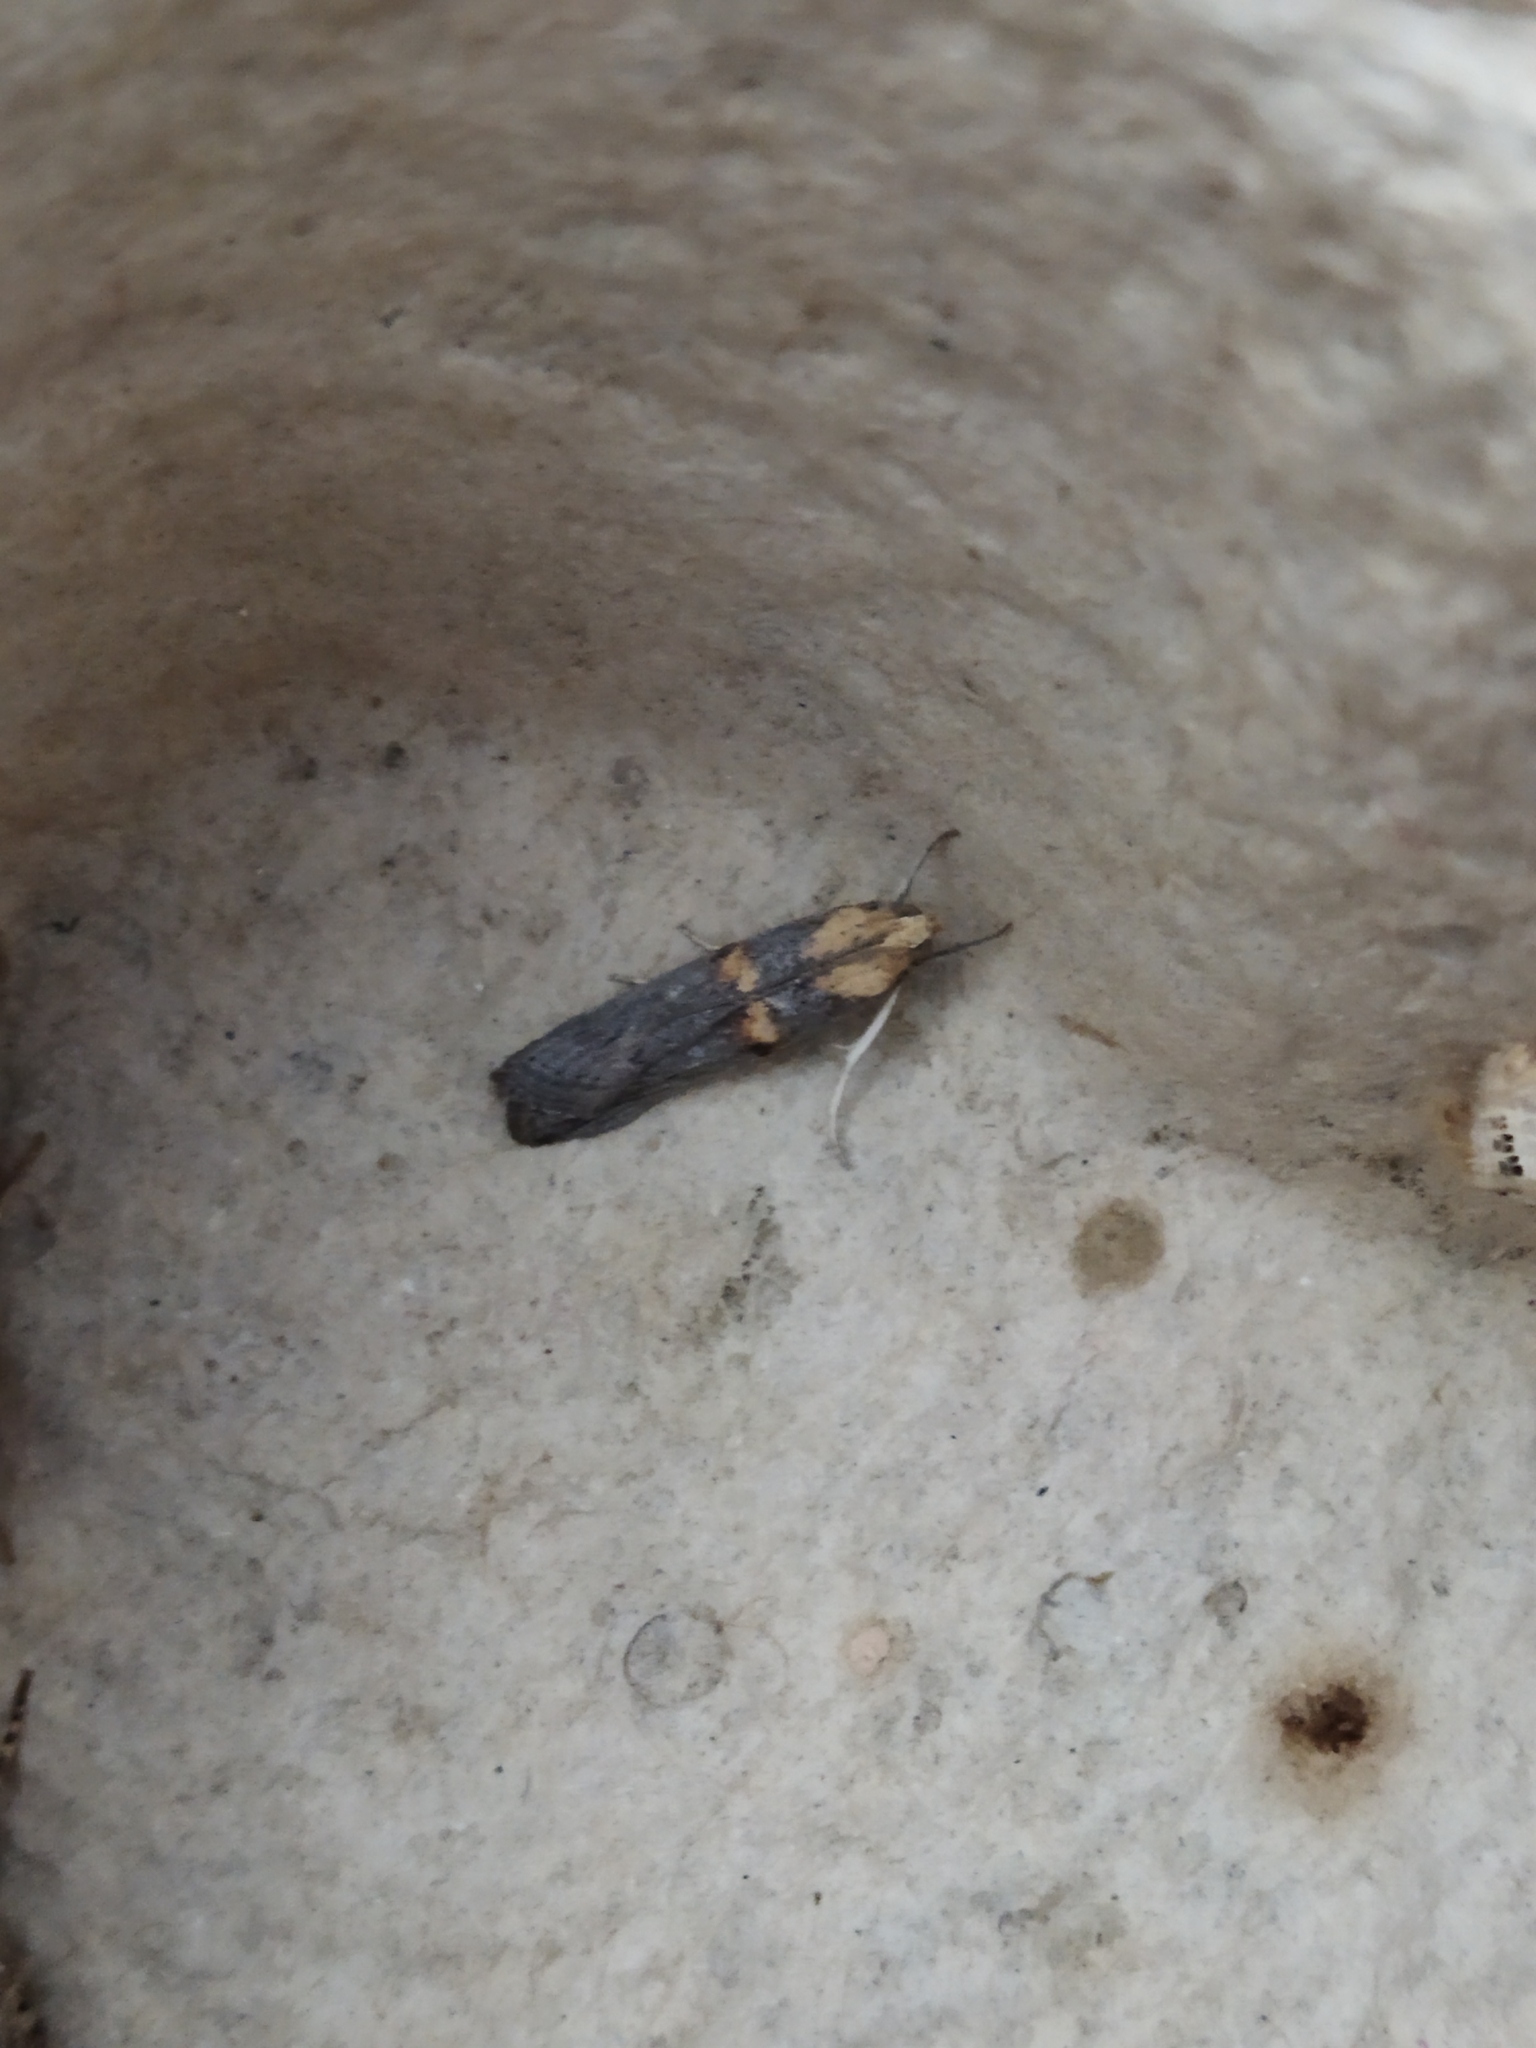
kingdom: Animalia
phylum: Arthropoda
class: Insecta
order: Lepidoptera
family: Pyralidae
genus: Oxybia
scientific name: Oxybia transversella
